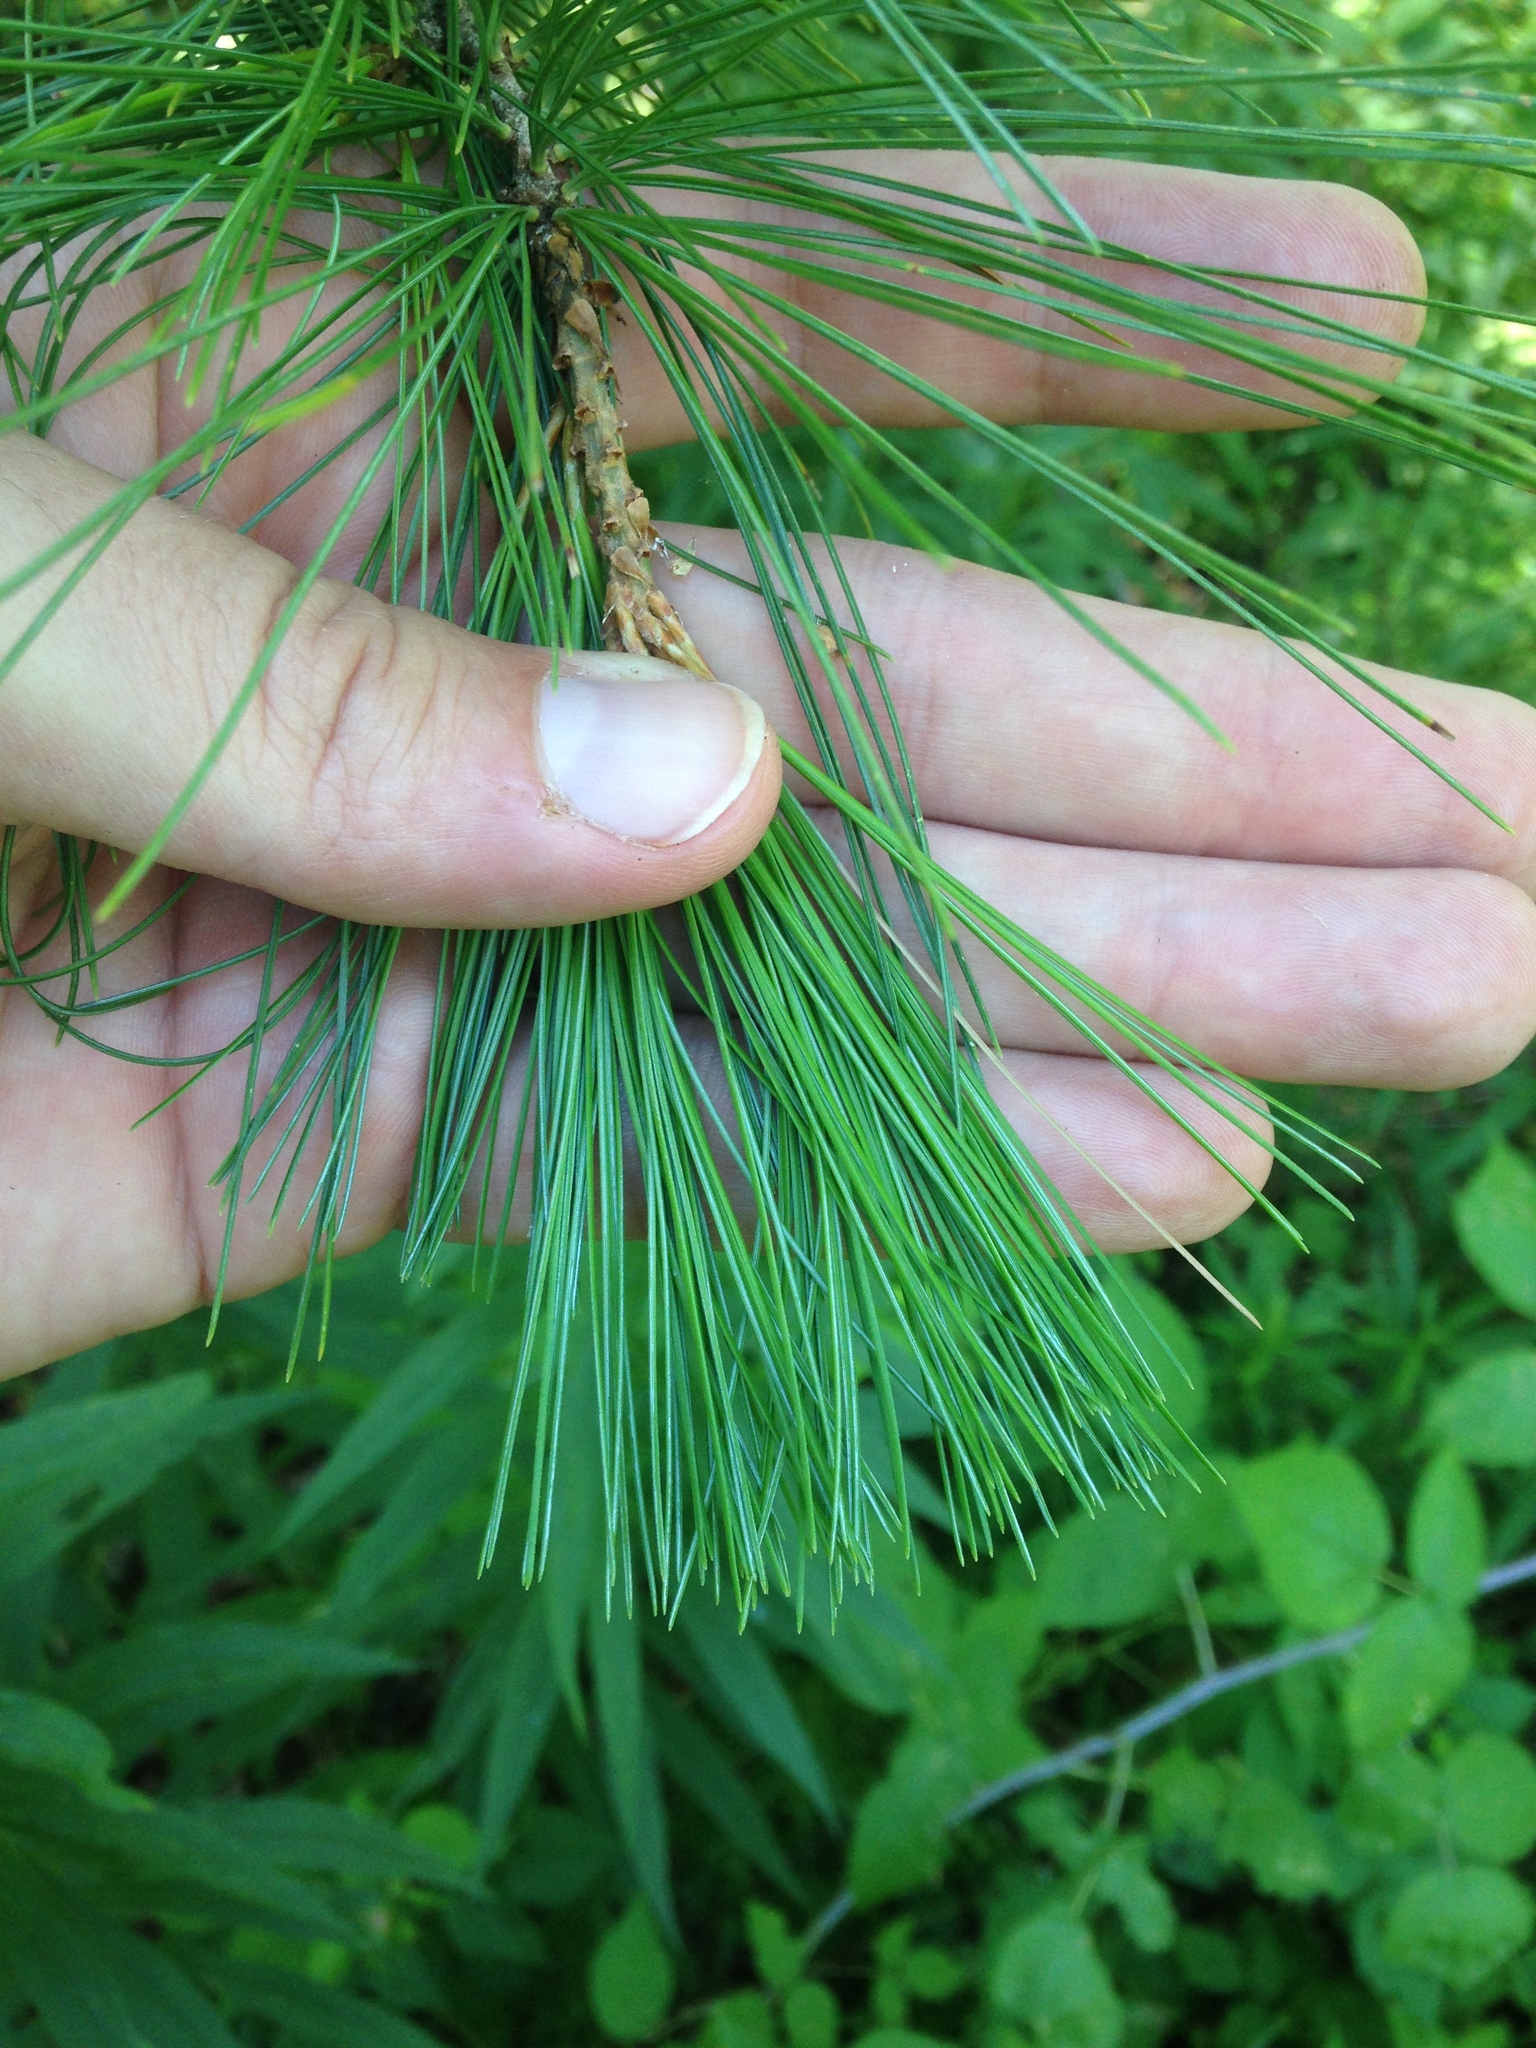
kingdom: Plantae
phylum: Tracheophyta
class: Pinopsida
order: Pinales
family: Pinaceae
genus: Pinus
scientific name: Pinus strobus
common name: Weymouth pine
